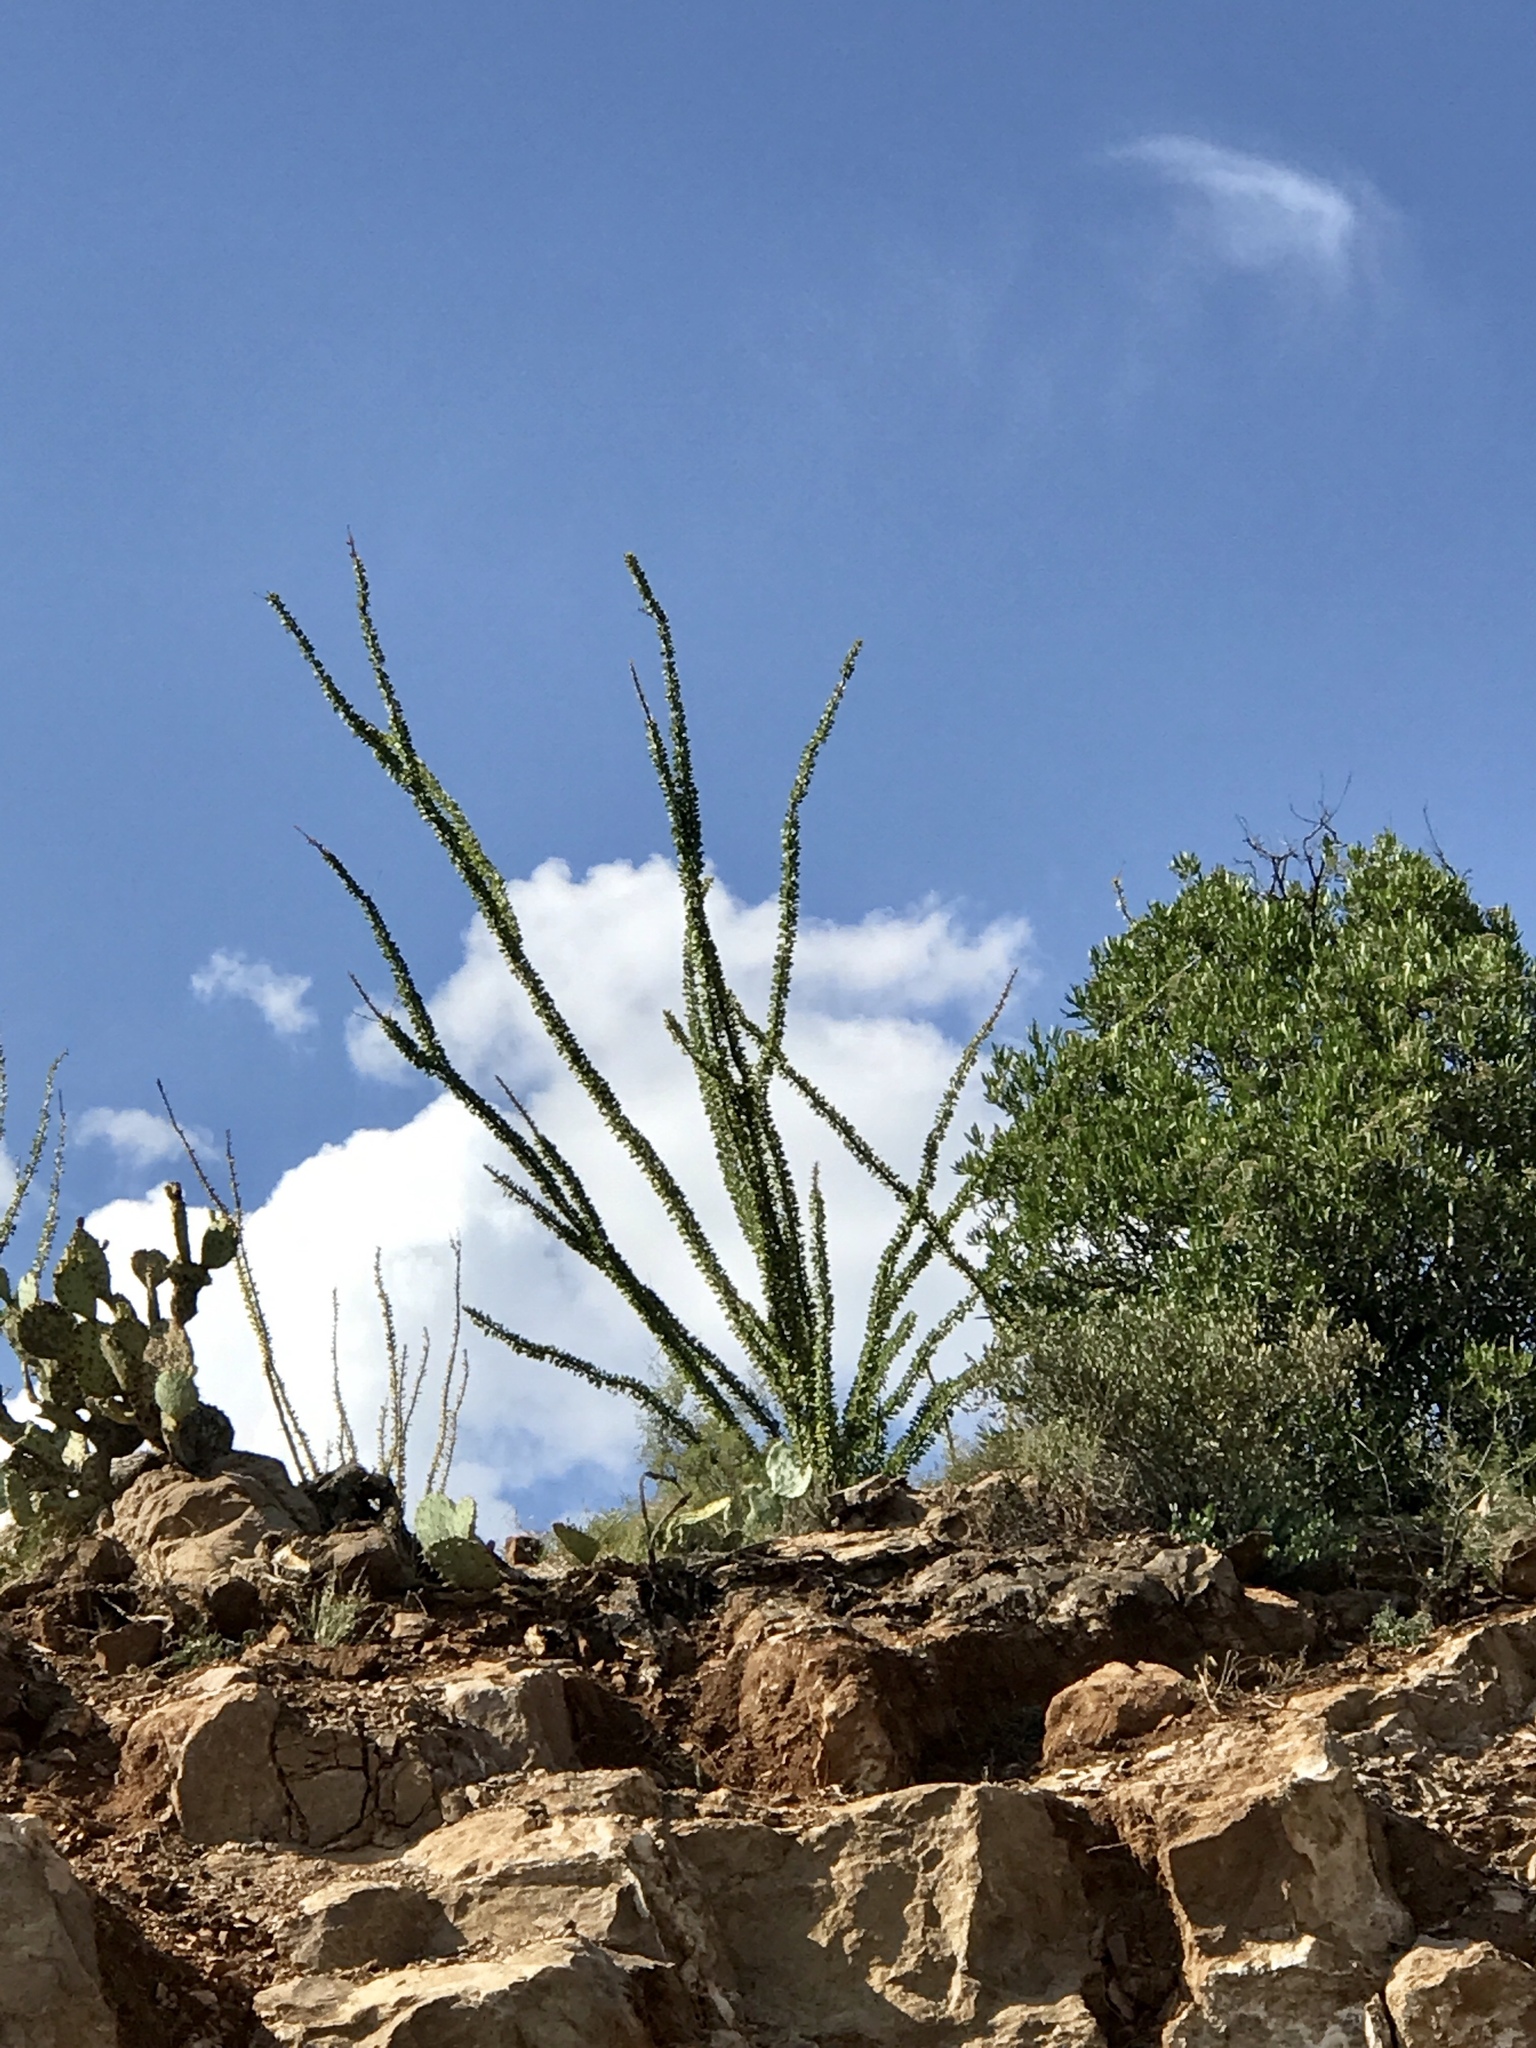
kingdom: Plantae
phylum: Tracheophyta
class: Magnoliopsida
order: Ericales
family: Fouquieriaceae
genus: Fouquieria
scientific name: Fouquieria splendens
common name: Vine-cactus
